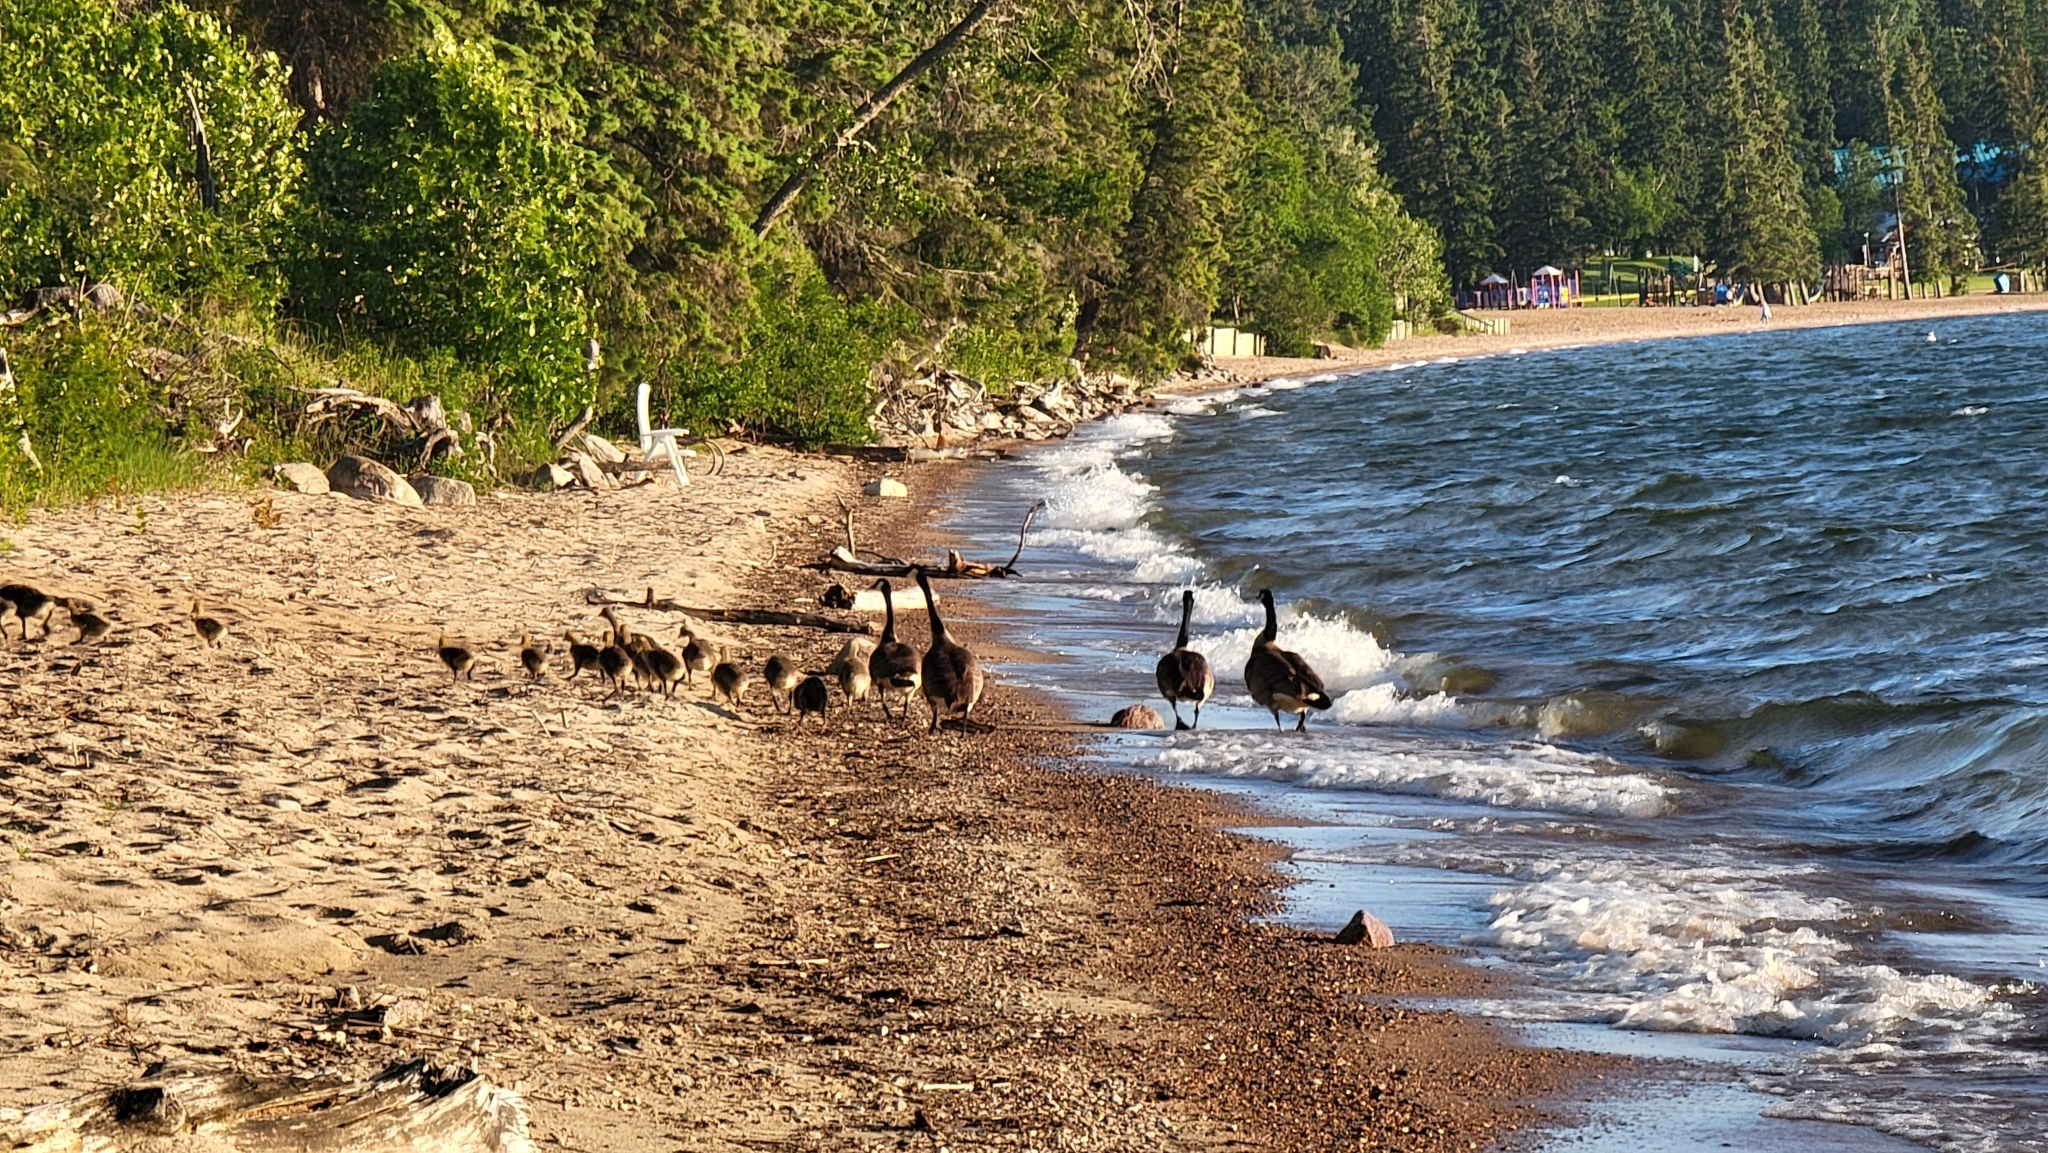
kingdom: Animalia
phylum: Chordata
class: Aves
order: Anseriformes
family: Anatidae
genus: Branta
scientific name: Branta canadensis
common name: Canada goose
